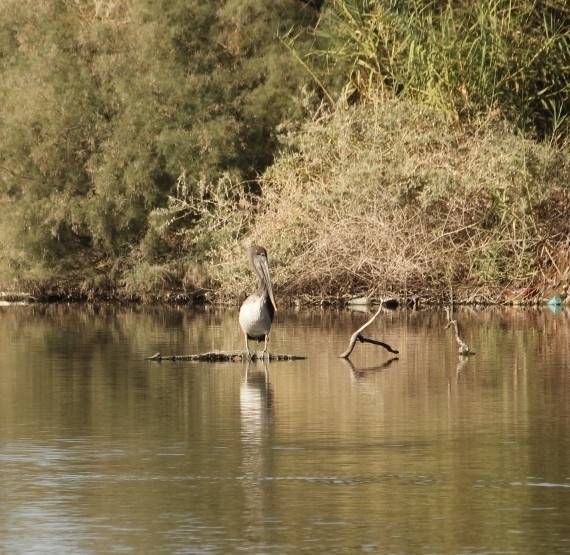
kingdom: Animalia
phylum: Chordata
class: Aves
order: Pelecaniformes
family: Pelecanidae
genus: Pelecanus
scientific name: Pelecanus occidentalis
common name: Brown pelican
